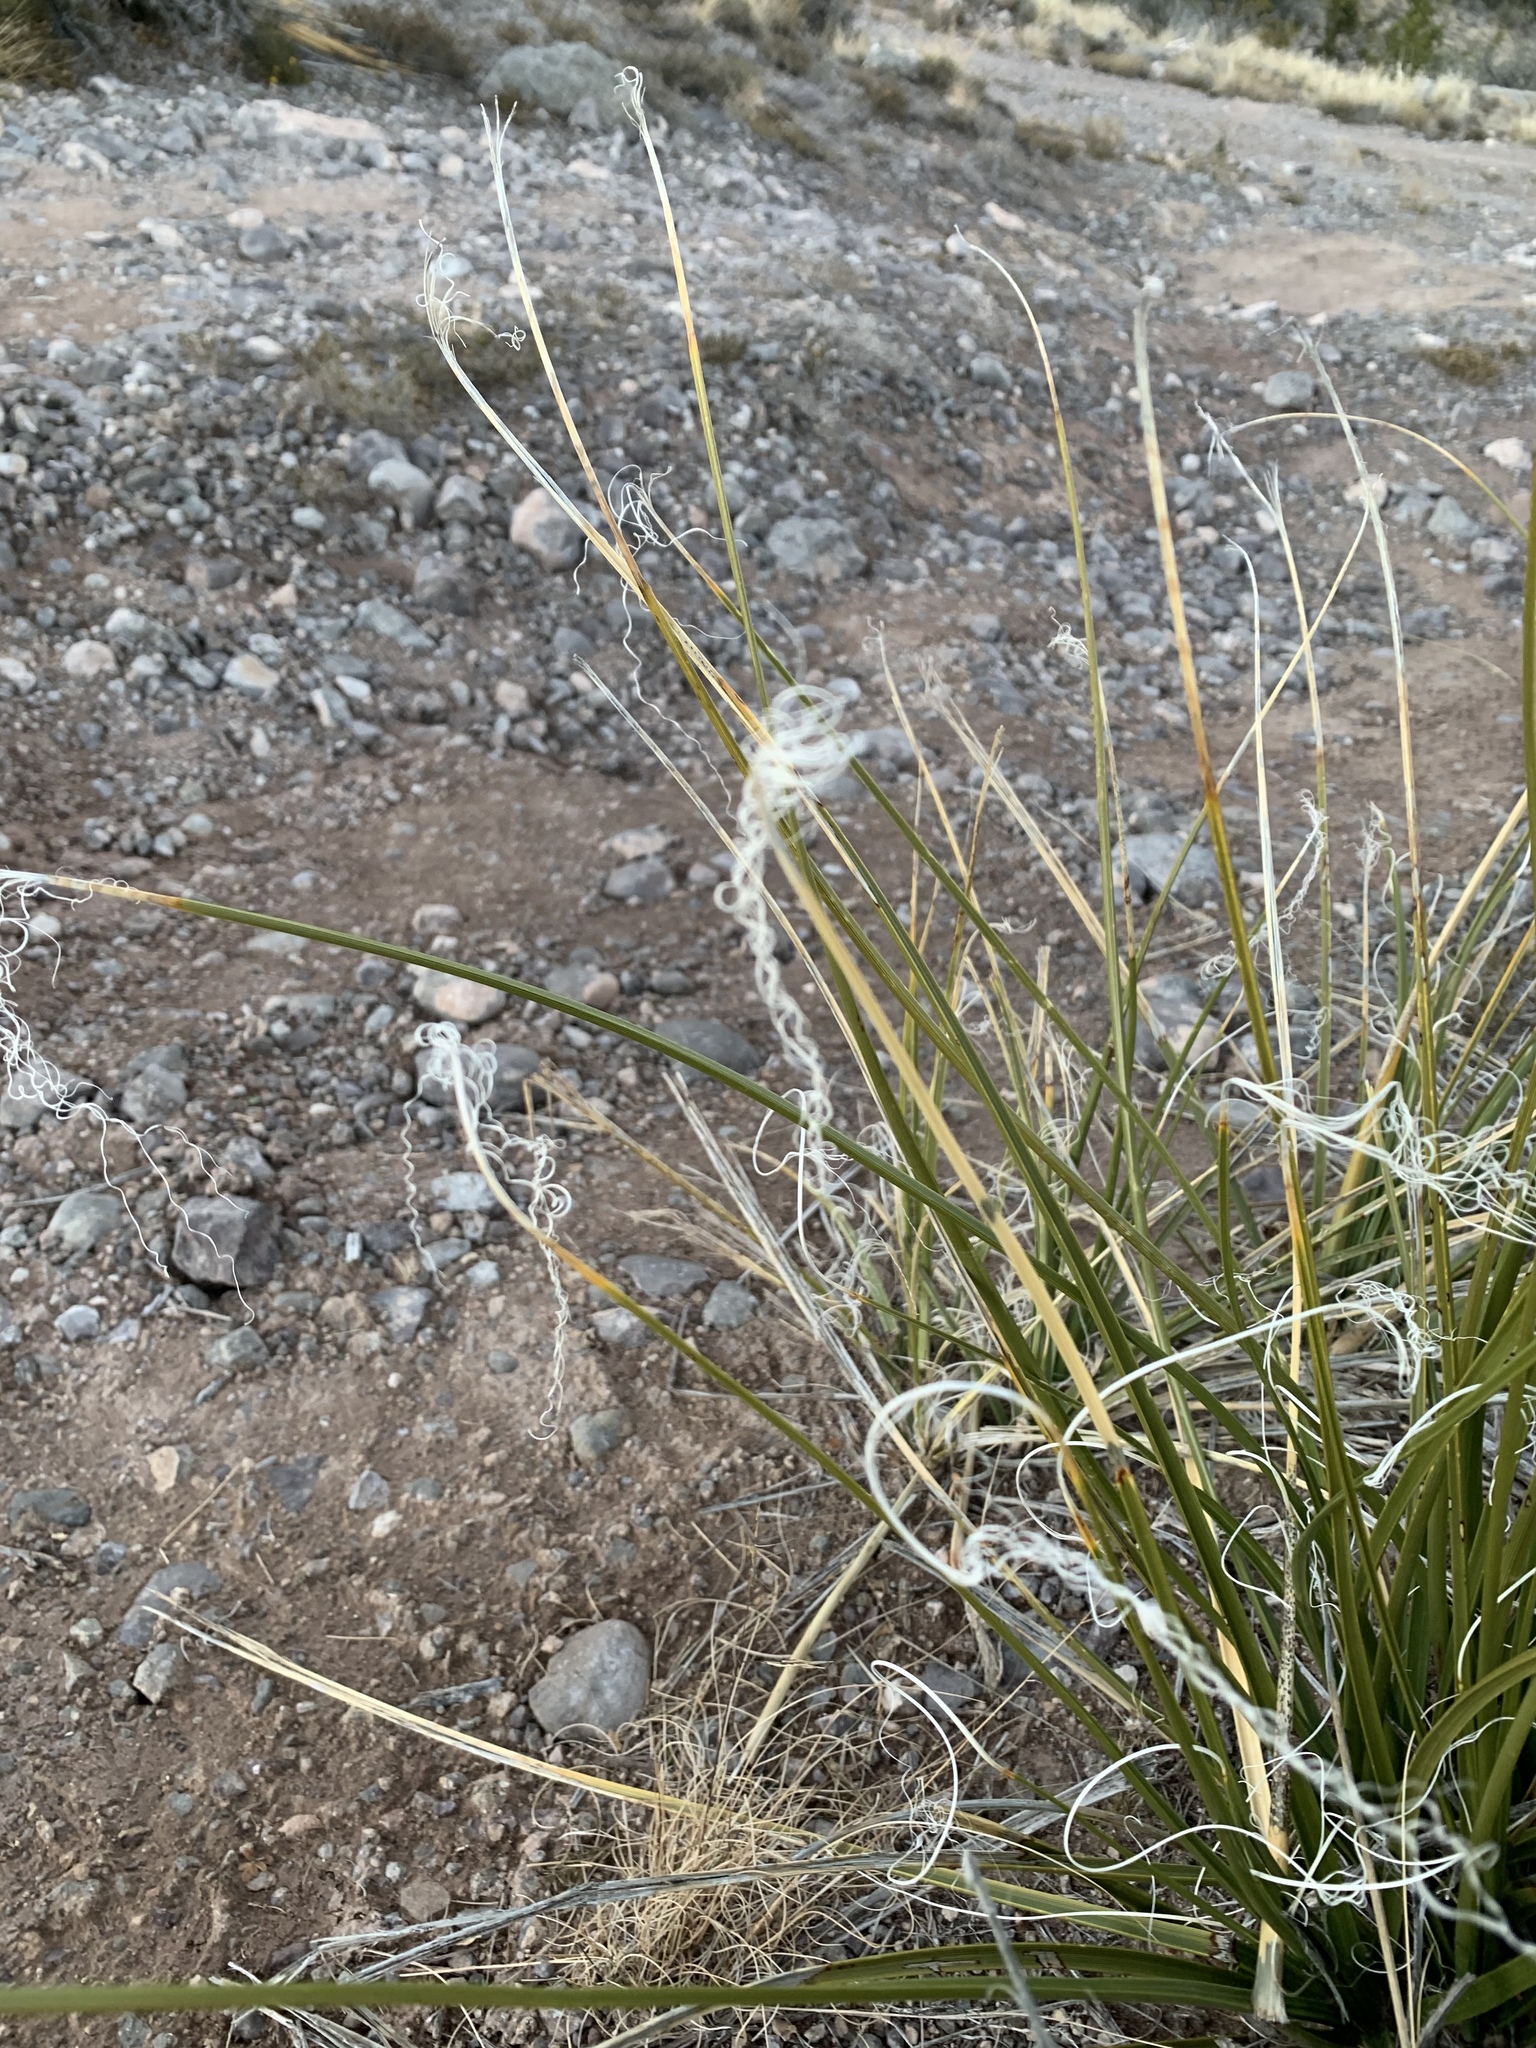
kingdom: Plantae
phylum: Tracheophyta
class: Liliopsida
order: Asparagales
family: Asparagaceae
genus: Nolina
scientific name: Nolina microcarpa
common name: Bear-grass
